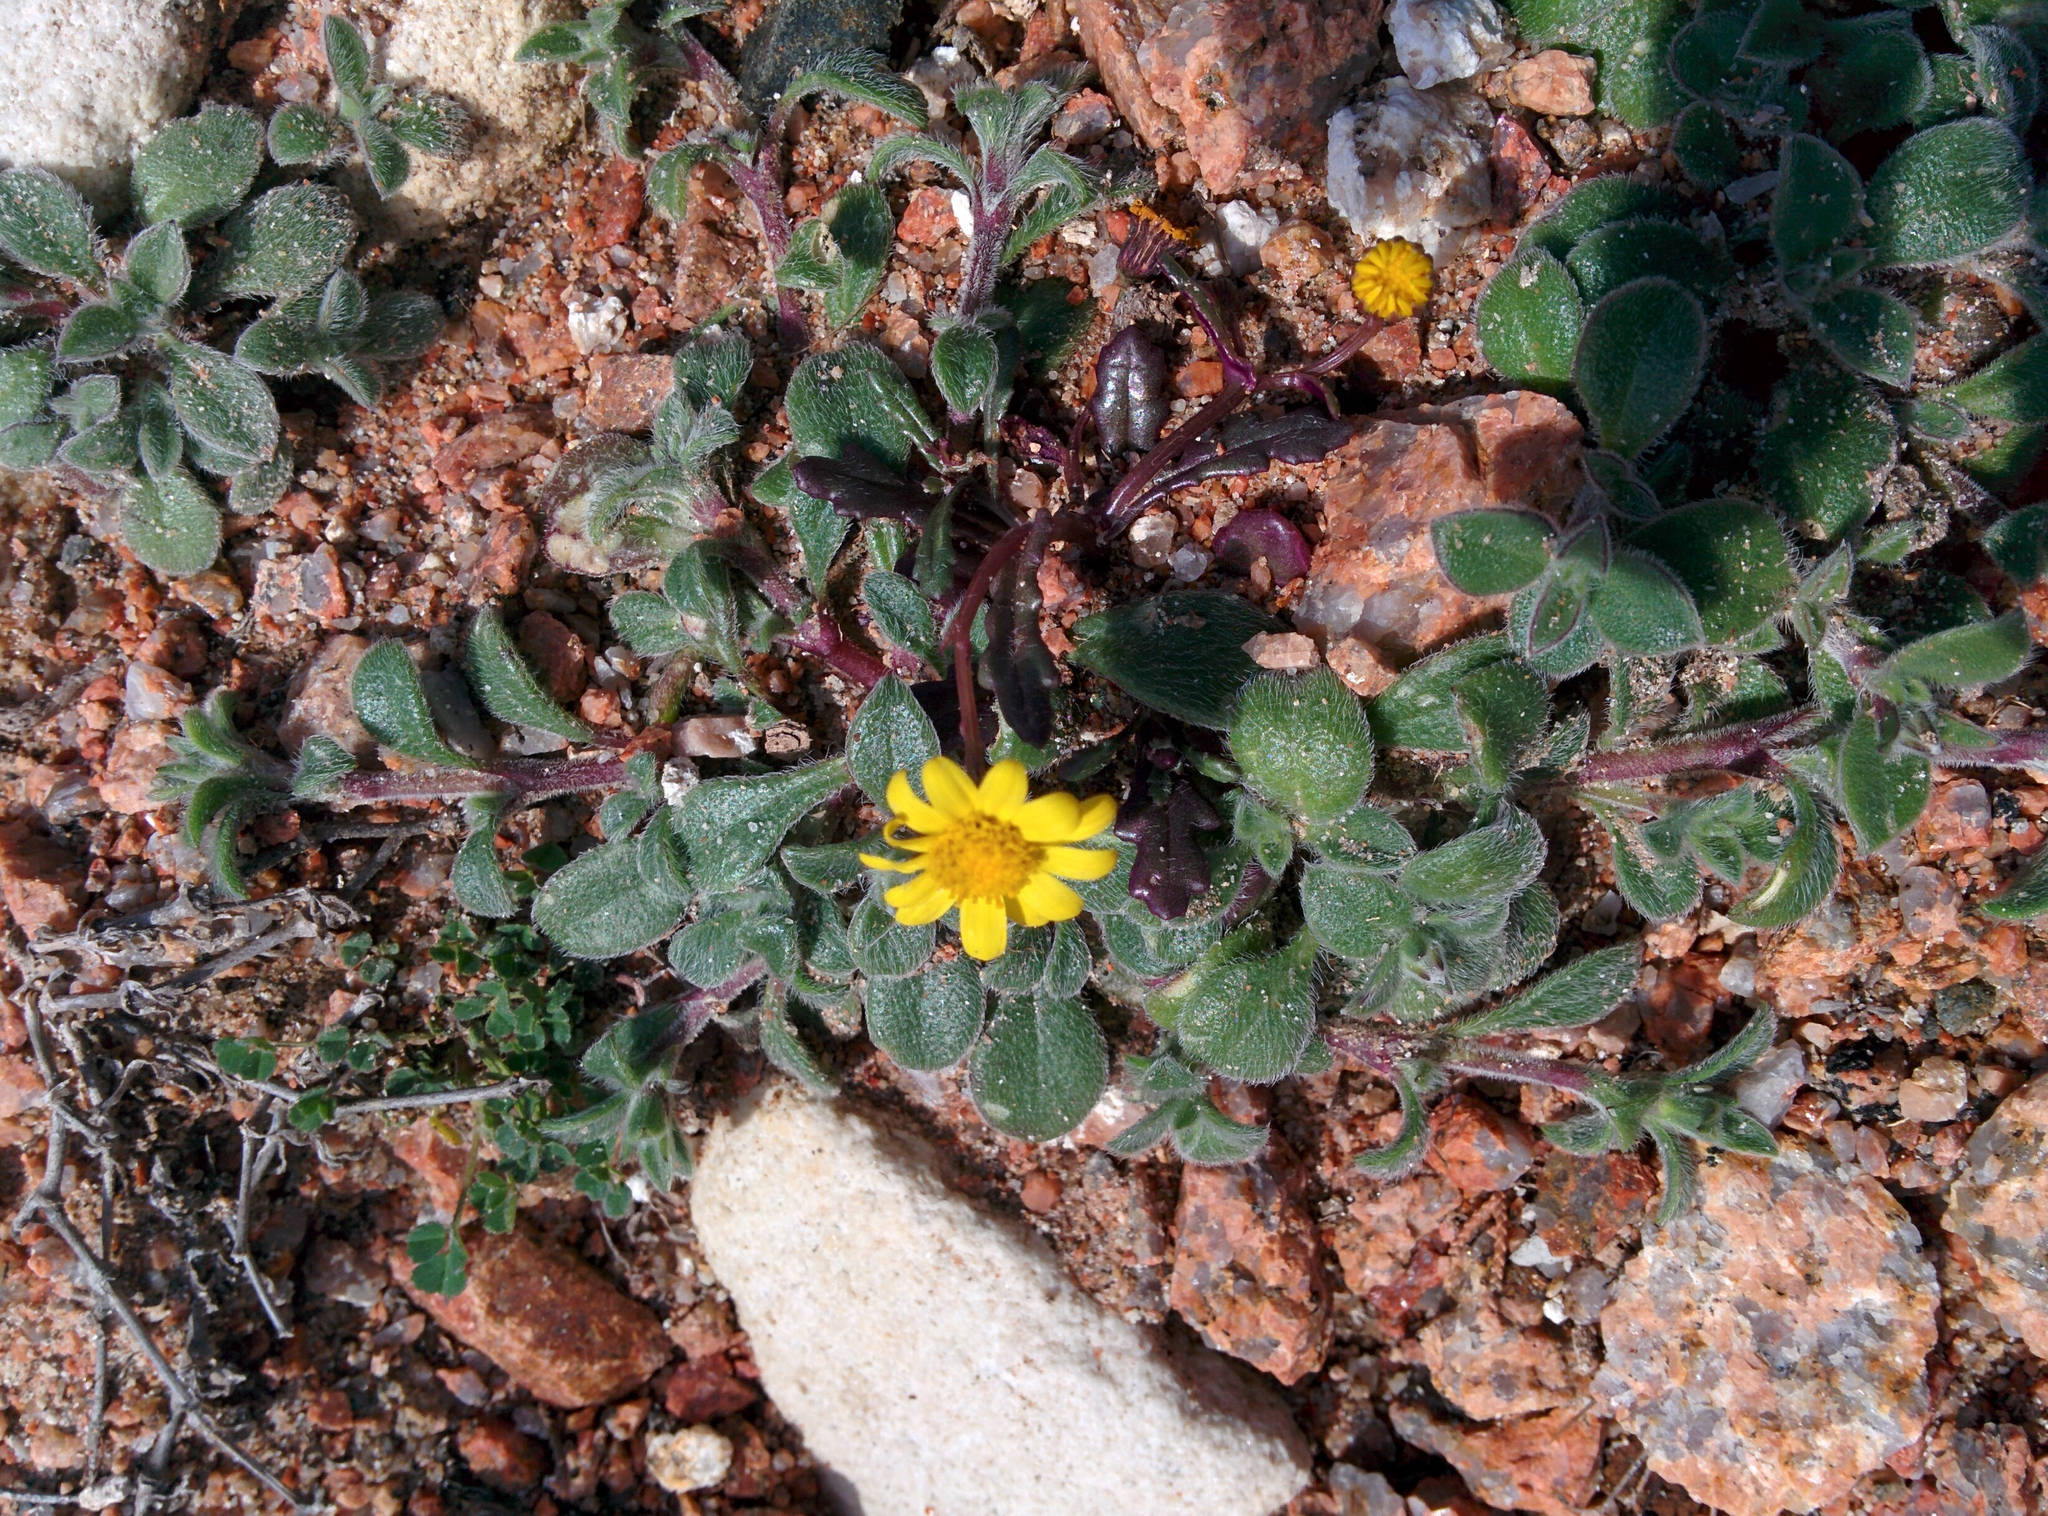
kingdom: Plantae
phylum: Tracheophyta
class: Magnoliopsida
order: Asterales
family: Asteraceae
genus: Senecio
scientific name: Senecio transiens
